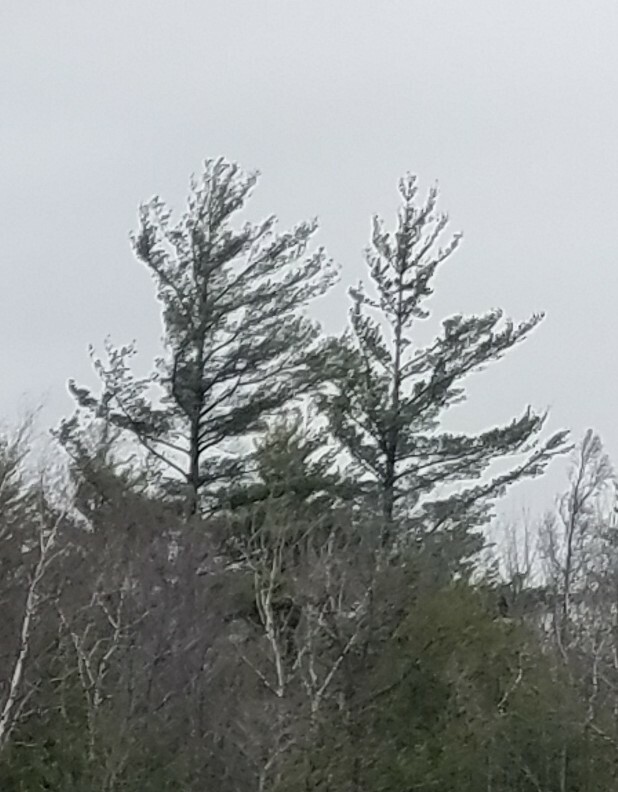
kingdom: Plantae
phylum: Tracheophyta
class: Pinopsida
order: Pinales
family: Pinaceae
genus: Pinus
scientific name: Pinus strobus
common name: Weymouth pine
